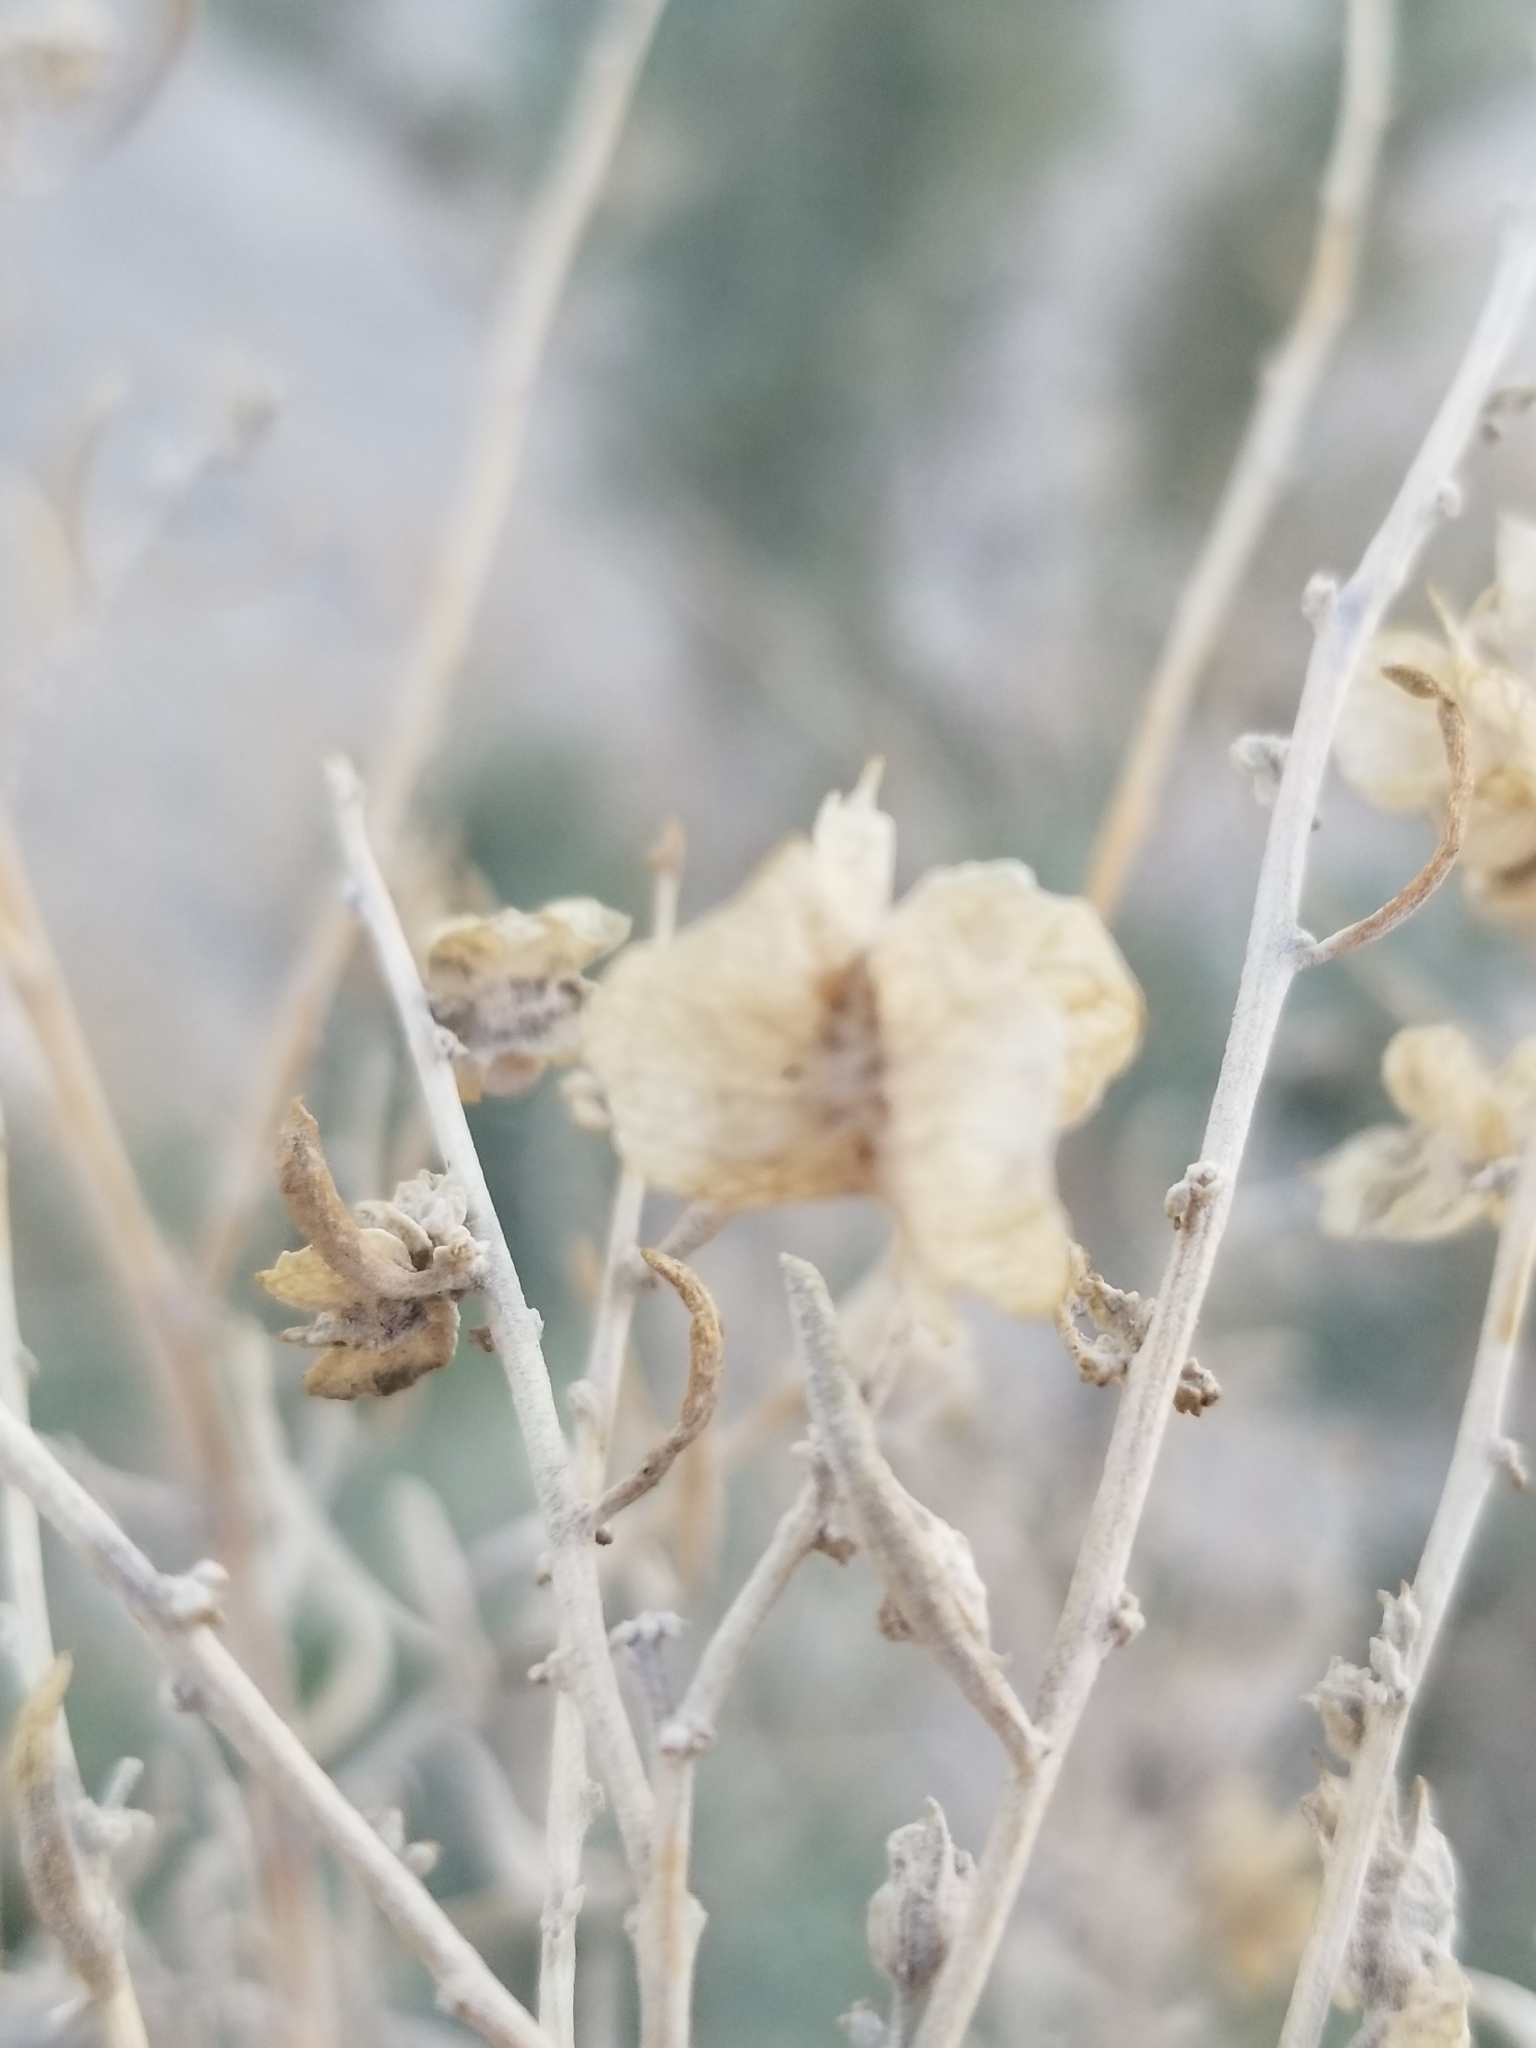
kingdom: Plantae
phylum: Tracheophyta
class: Magnoliopsida
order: Caryophyllales
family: Amaranthaceae
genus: Atriplex
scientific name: Atriplex polycarpa
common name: Desert saltbush
